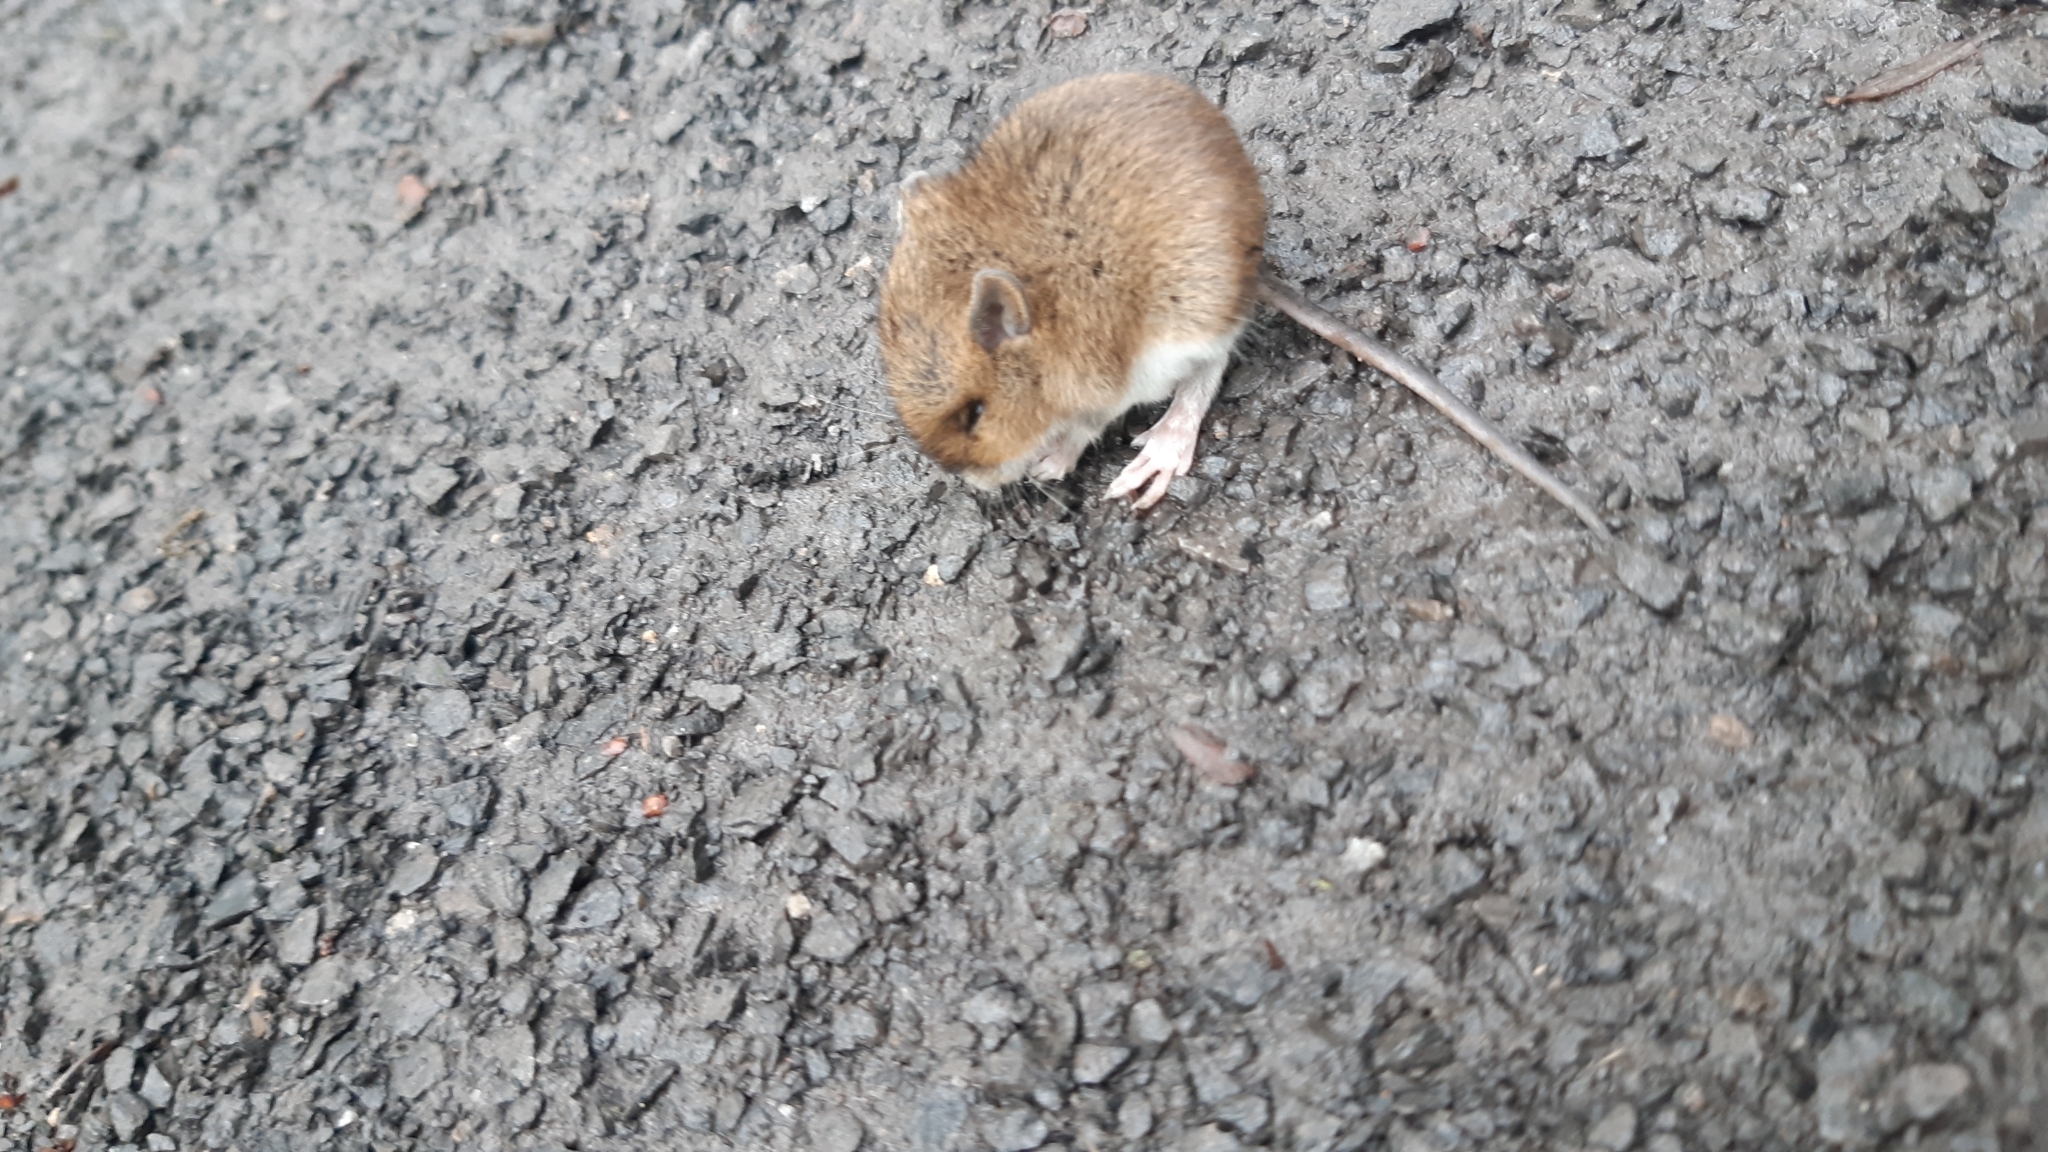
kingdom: Animalia
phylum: Chordata
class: Mammalia
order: Rodentia
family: Muridae
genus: Apodemus
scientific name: Apodemus sylvaticus
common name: Wood mouse
